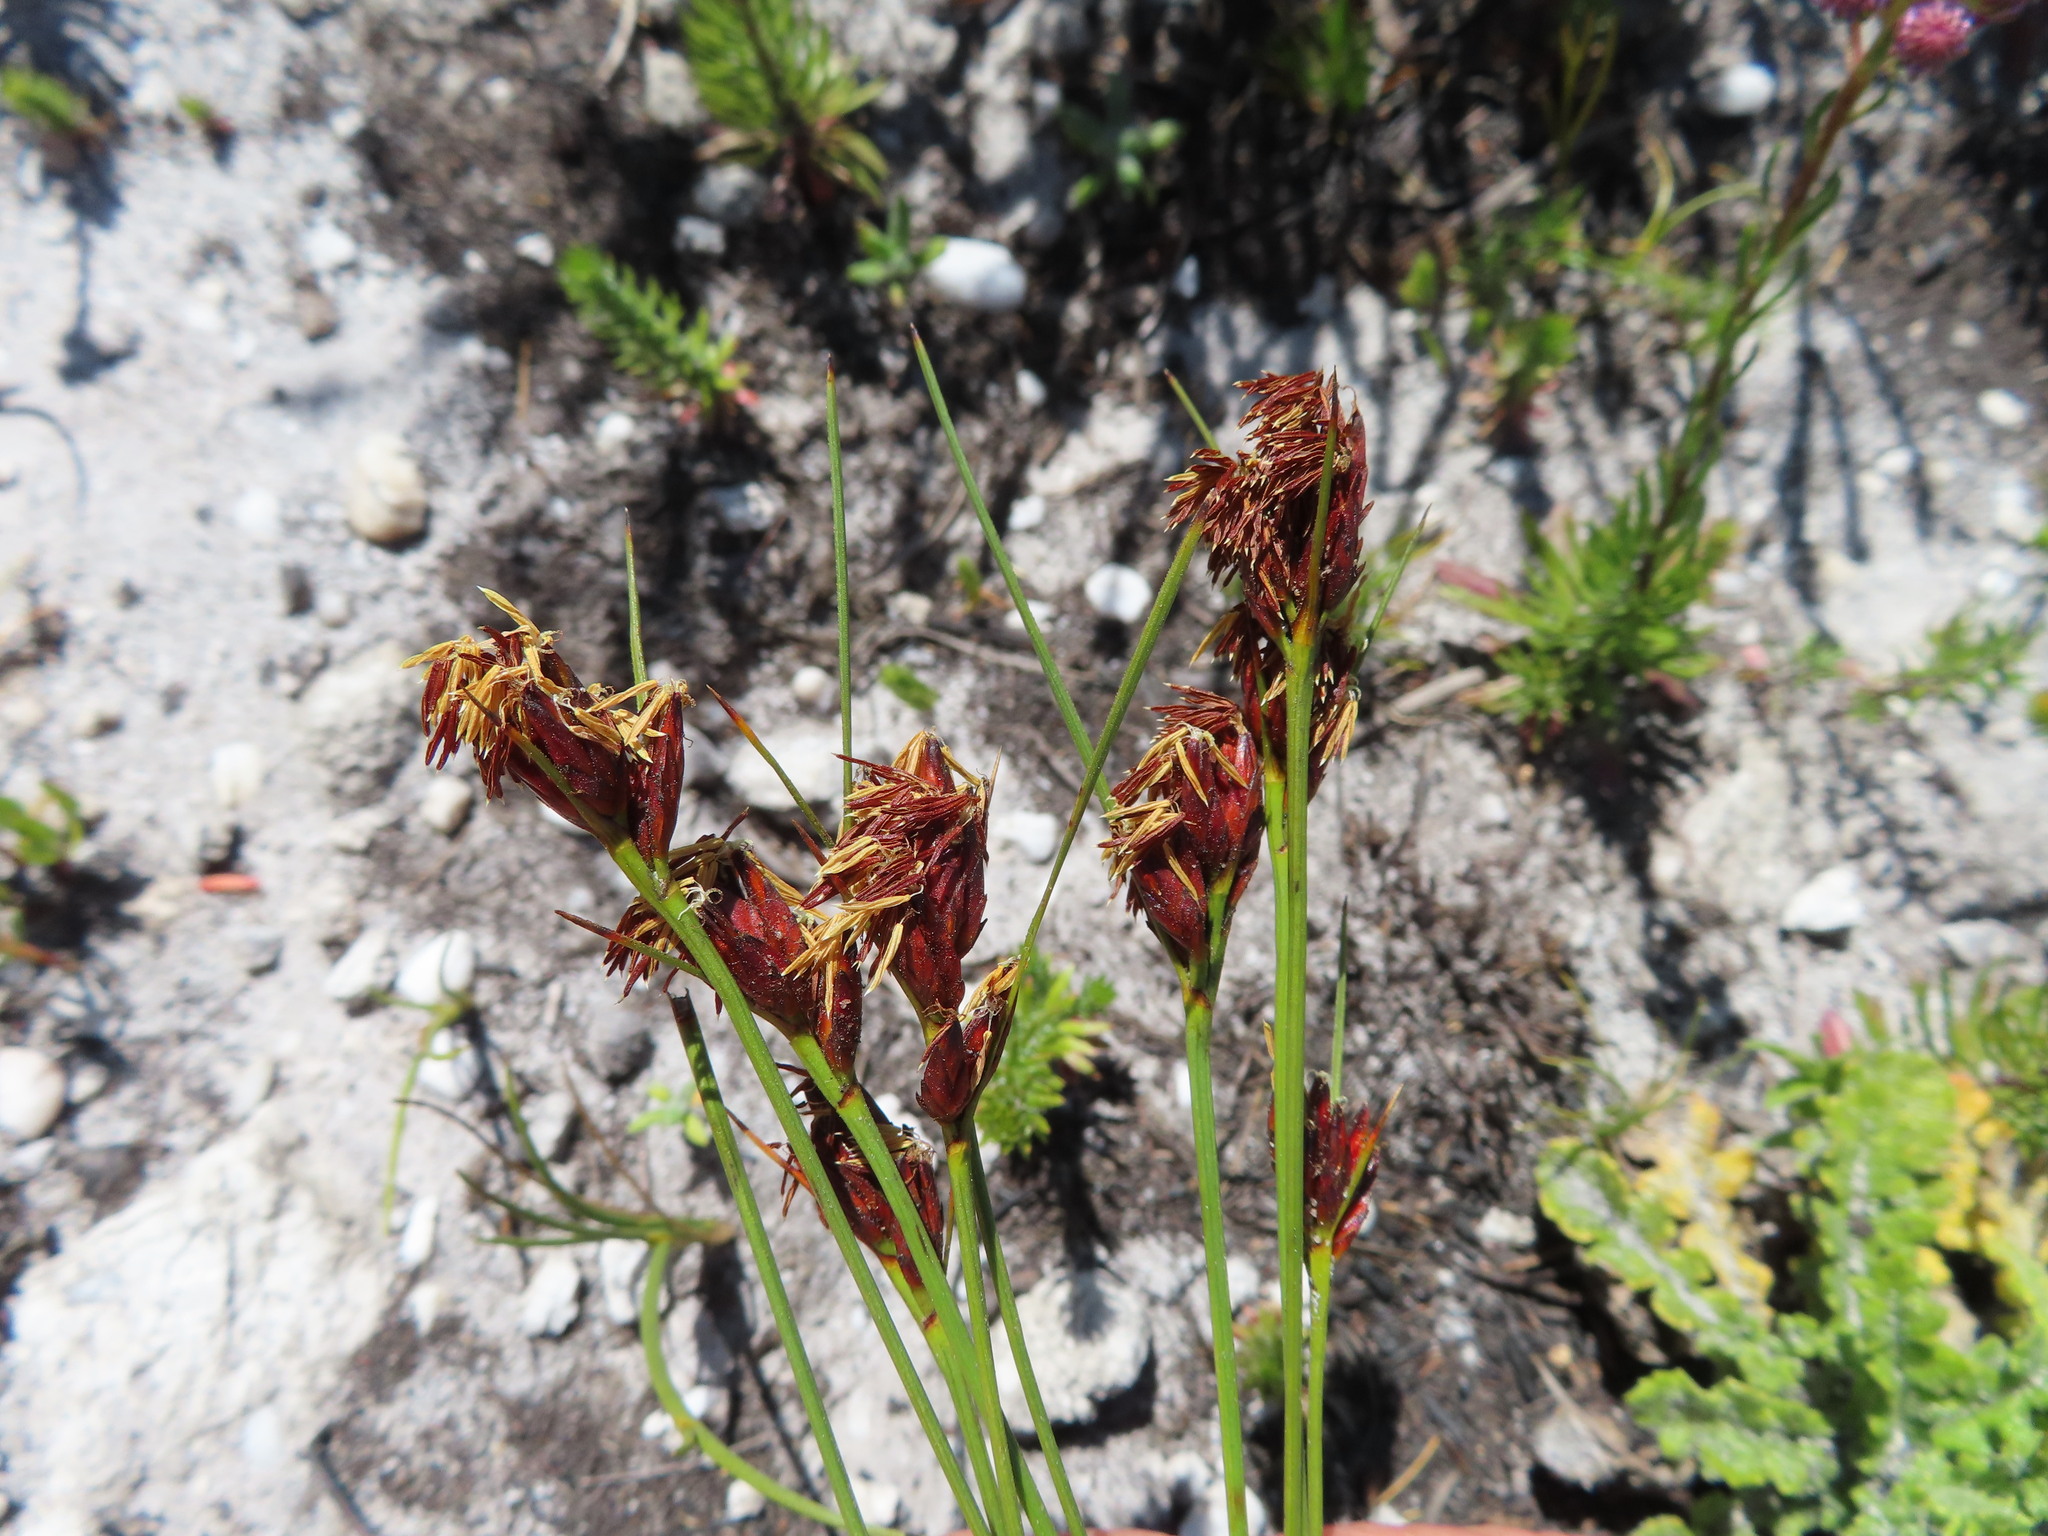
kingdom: Plantae
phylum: Tracheophyta
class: Liliopsida
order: Poales
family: Cyperaceae
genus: Schoenus
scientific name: Schoenus compar
